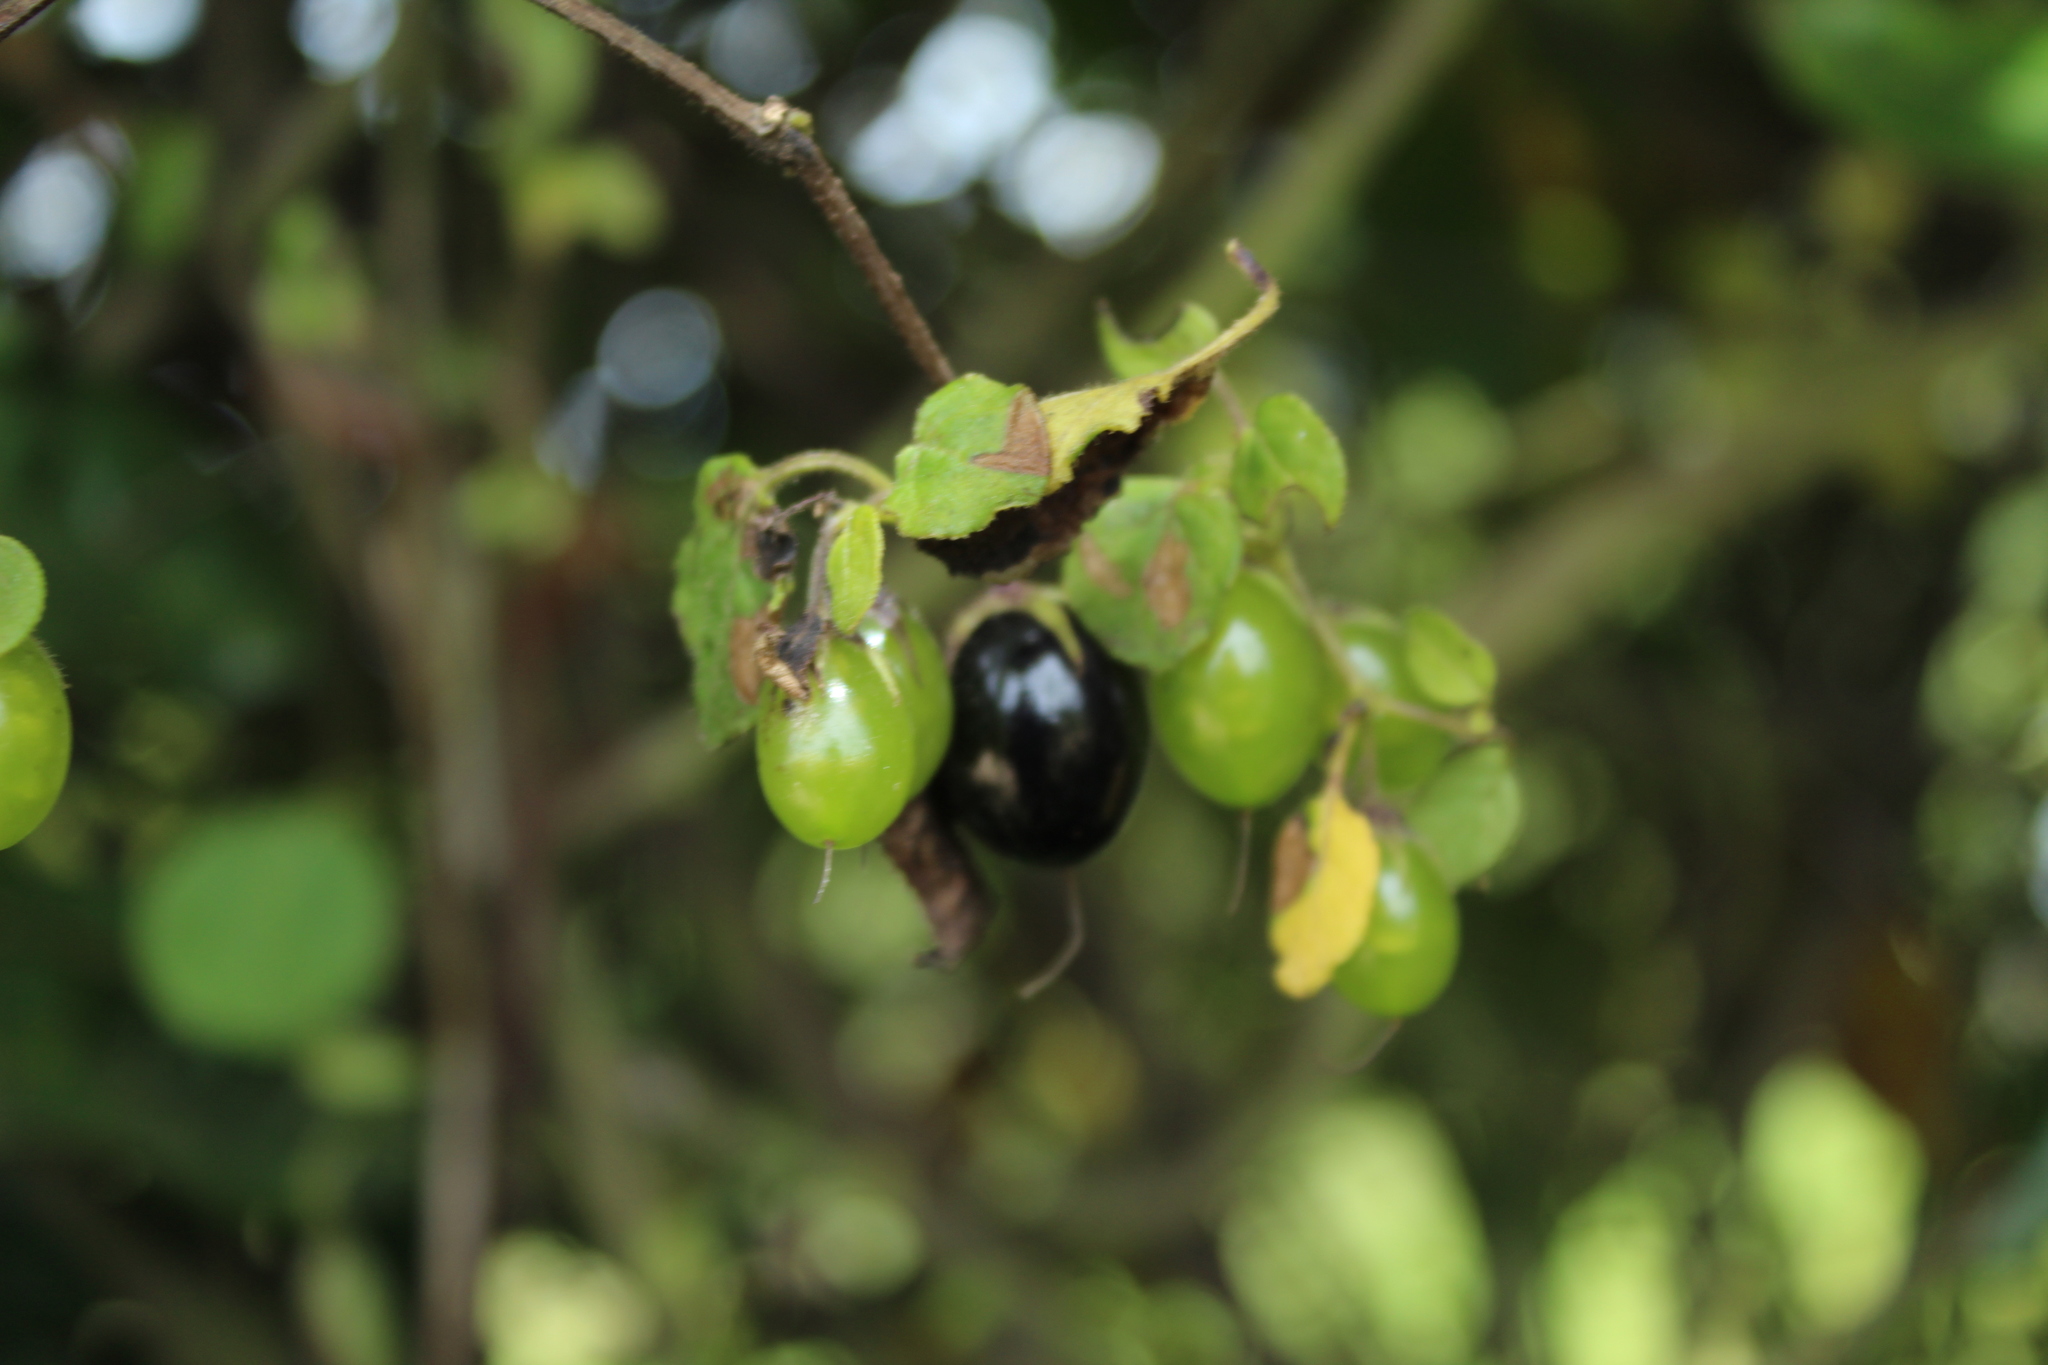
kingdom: Plantae
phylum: Tracheophyta
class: Magnoliopsida
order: Solanales
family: Solanaceae
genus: Salpichroa
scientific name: Salpichroa tristis
